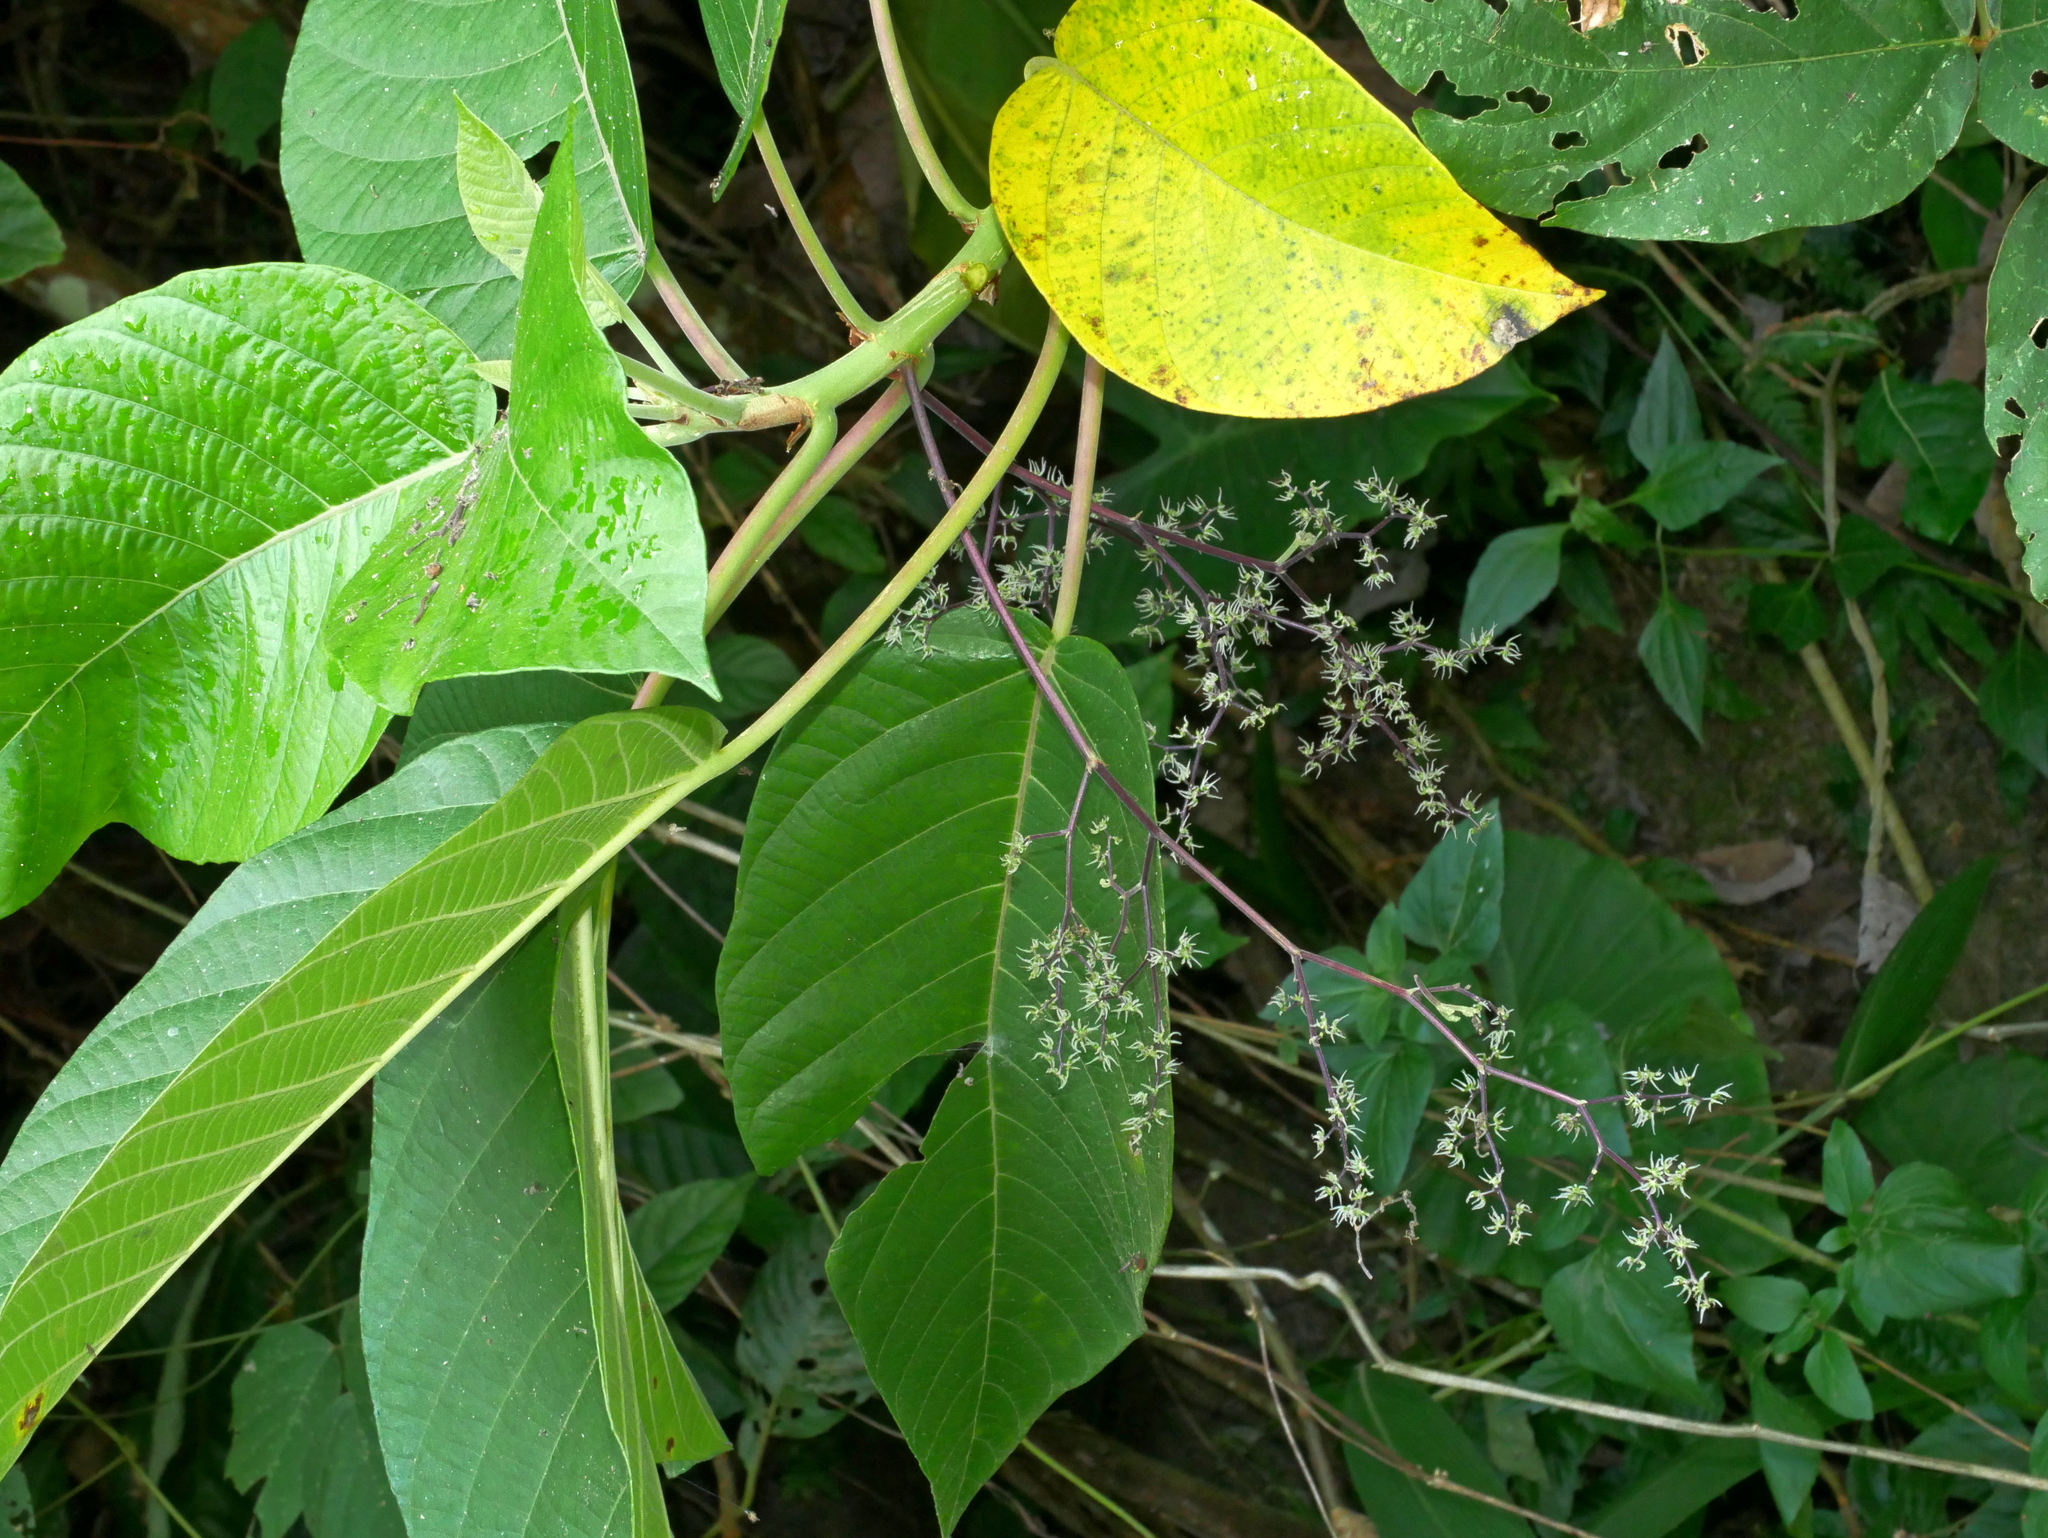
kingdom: Plantae
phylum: Tracheophyta
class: Magnoliopsida
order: Rosales
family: Urticaceae
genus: Dendrocnide
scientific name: Dendrocnide meyeniana
